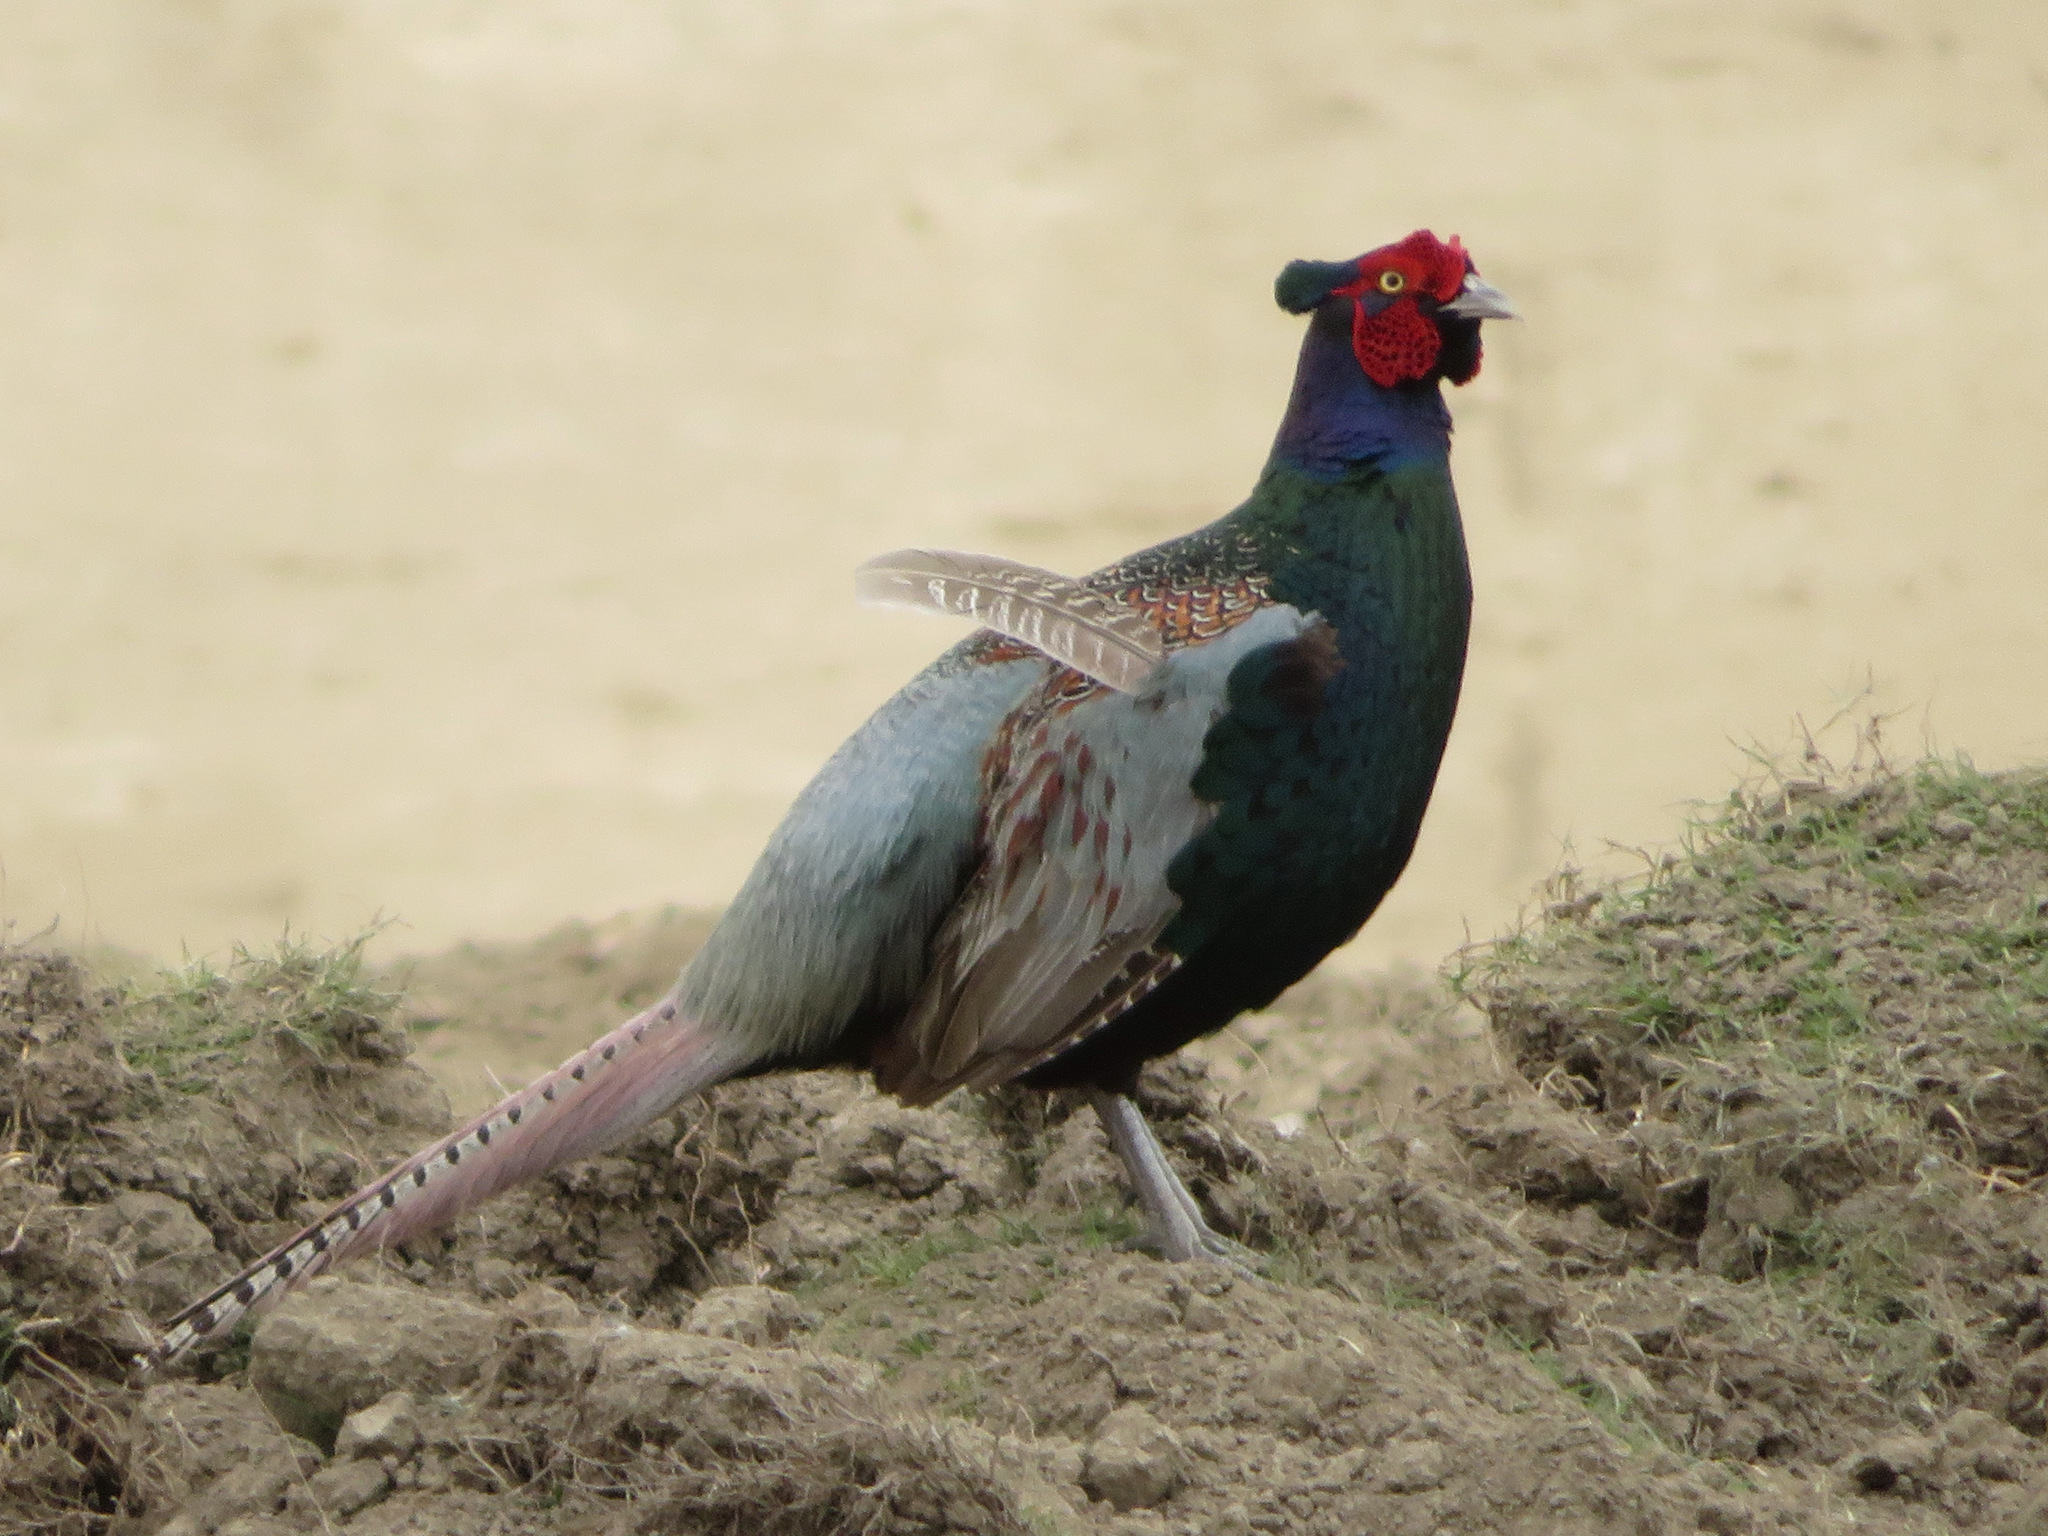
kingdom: Animalia
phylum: Chordata
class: Aves
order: Galliformes
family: Phasianidae
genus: Phasianus
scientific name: Phasianus versicolor
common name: Green pheasant
